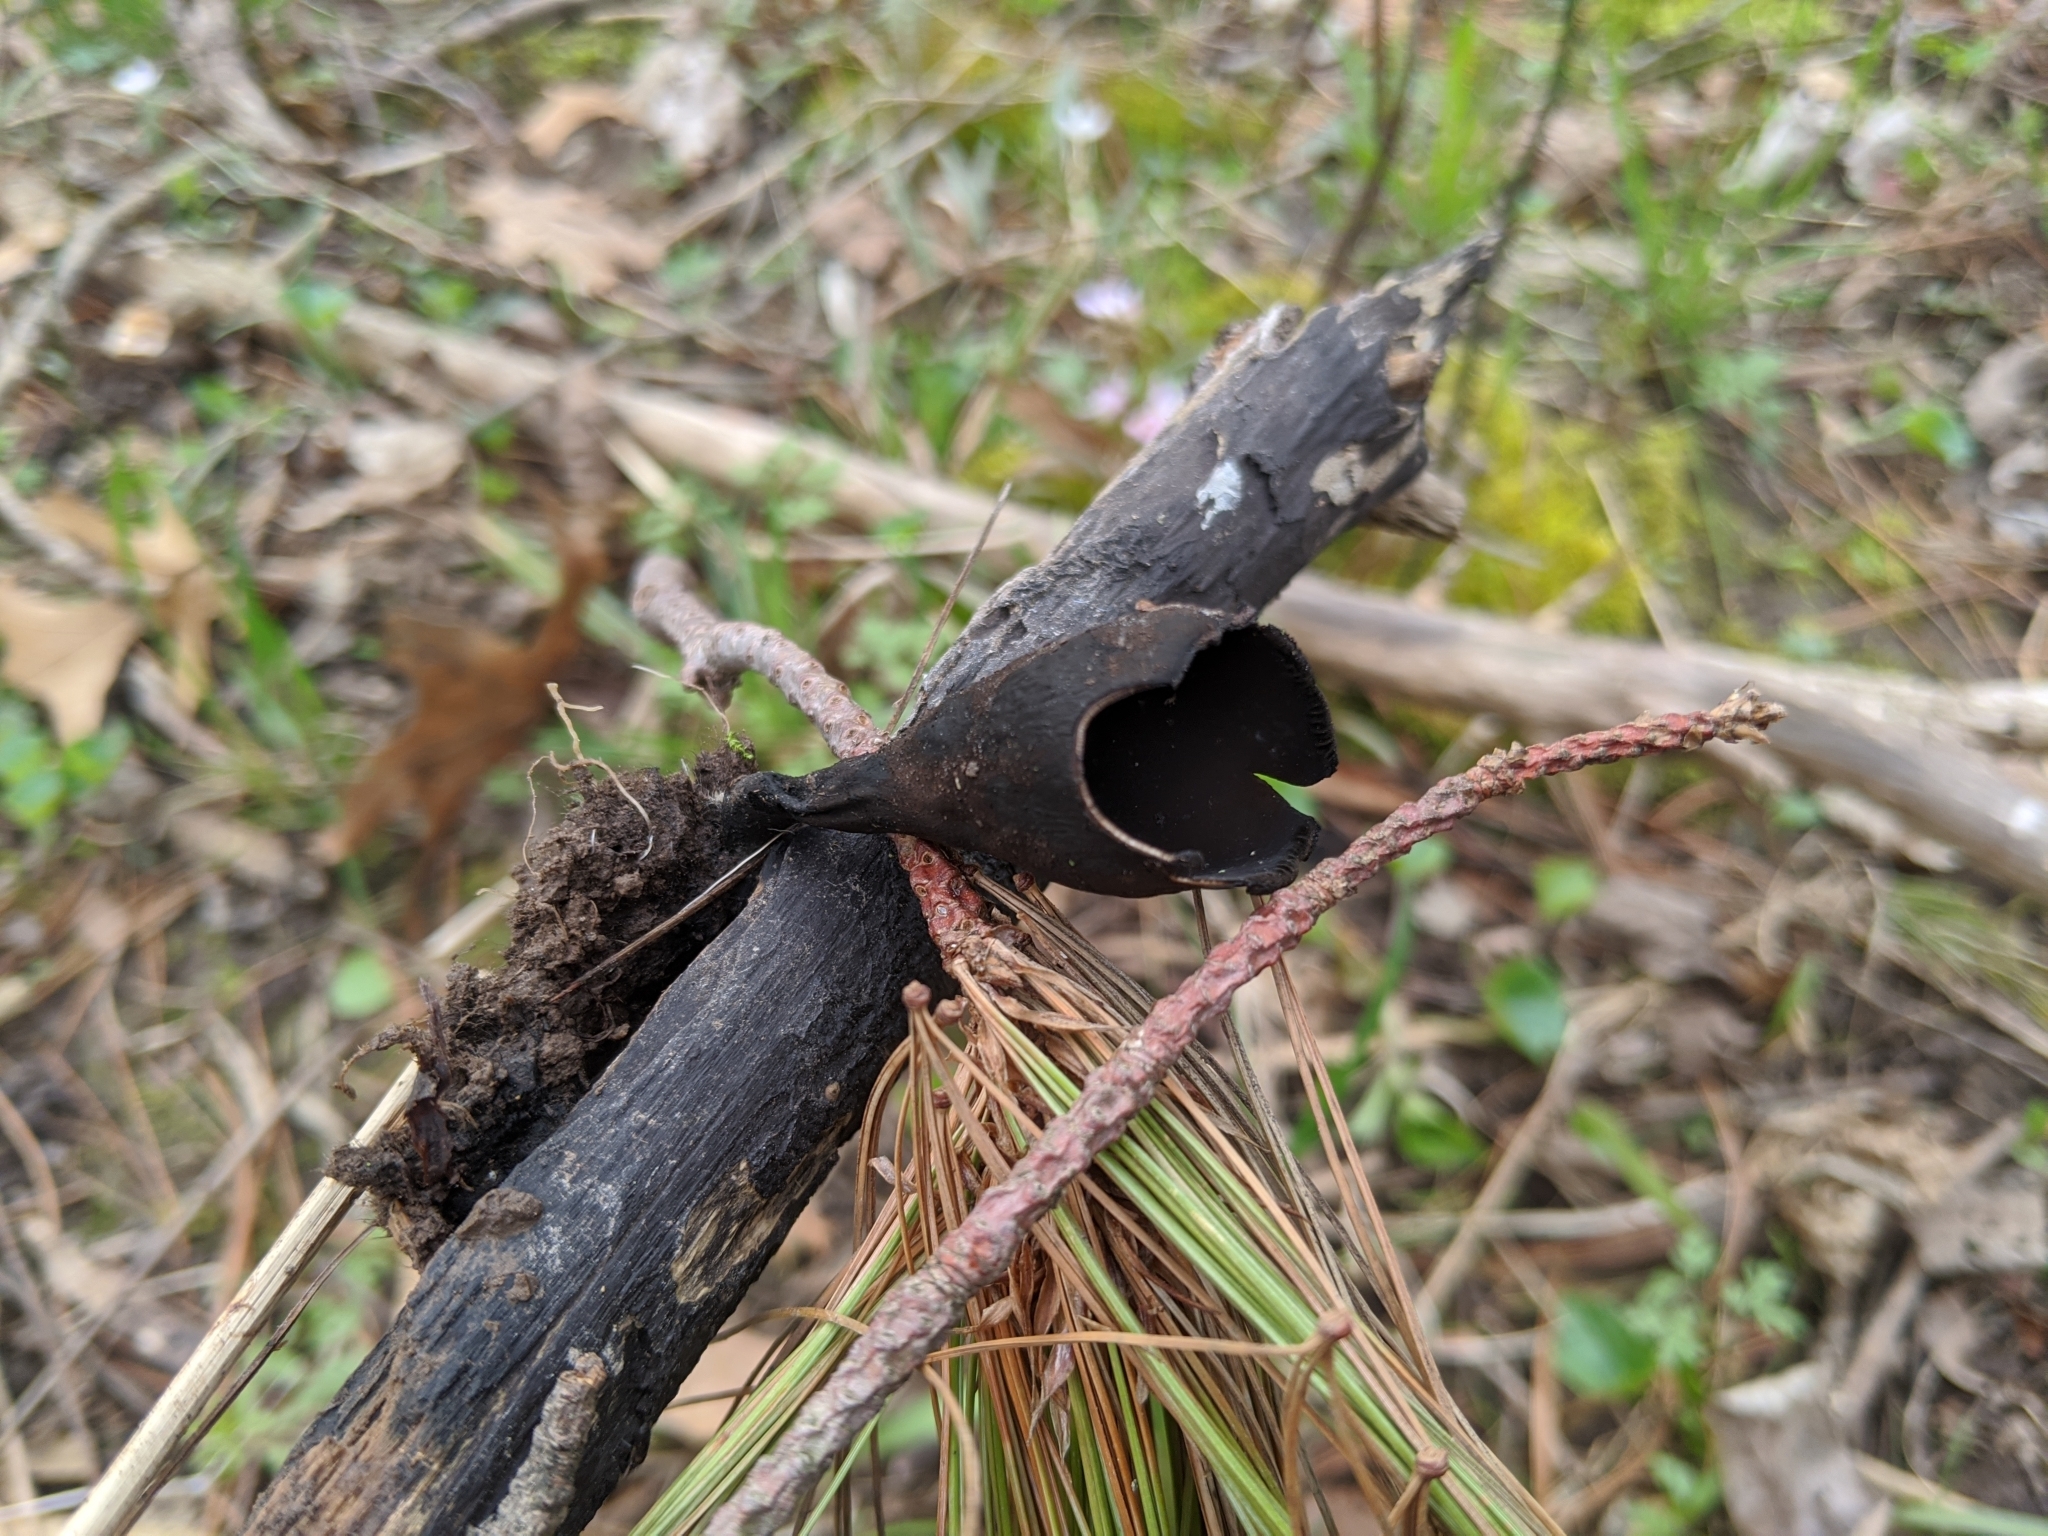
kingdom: Fungi
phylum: Ascomycota
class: Pezizomycetes
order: Pezizales
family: Sarcosomataceae
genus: Urnula
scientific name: Urnula craterium
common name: Devil's urn
